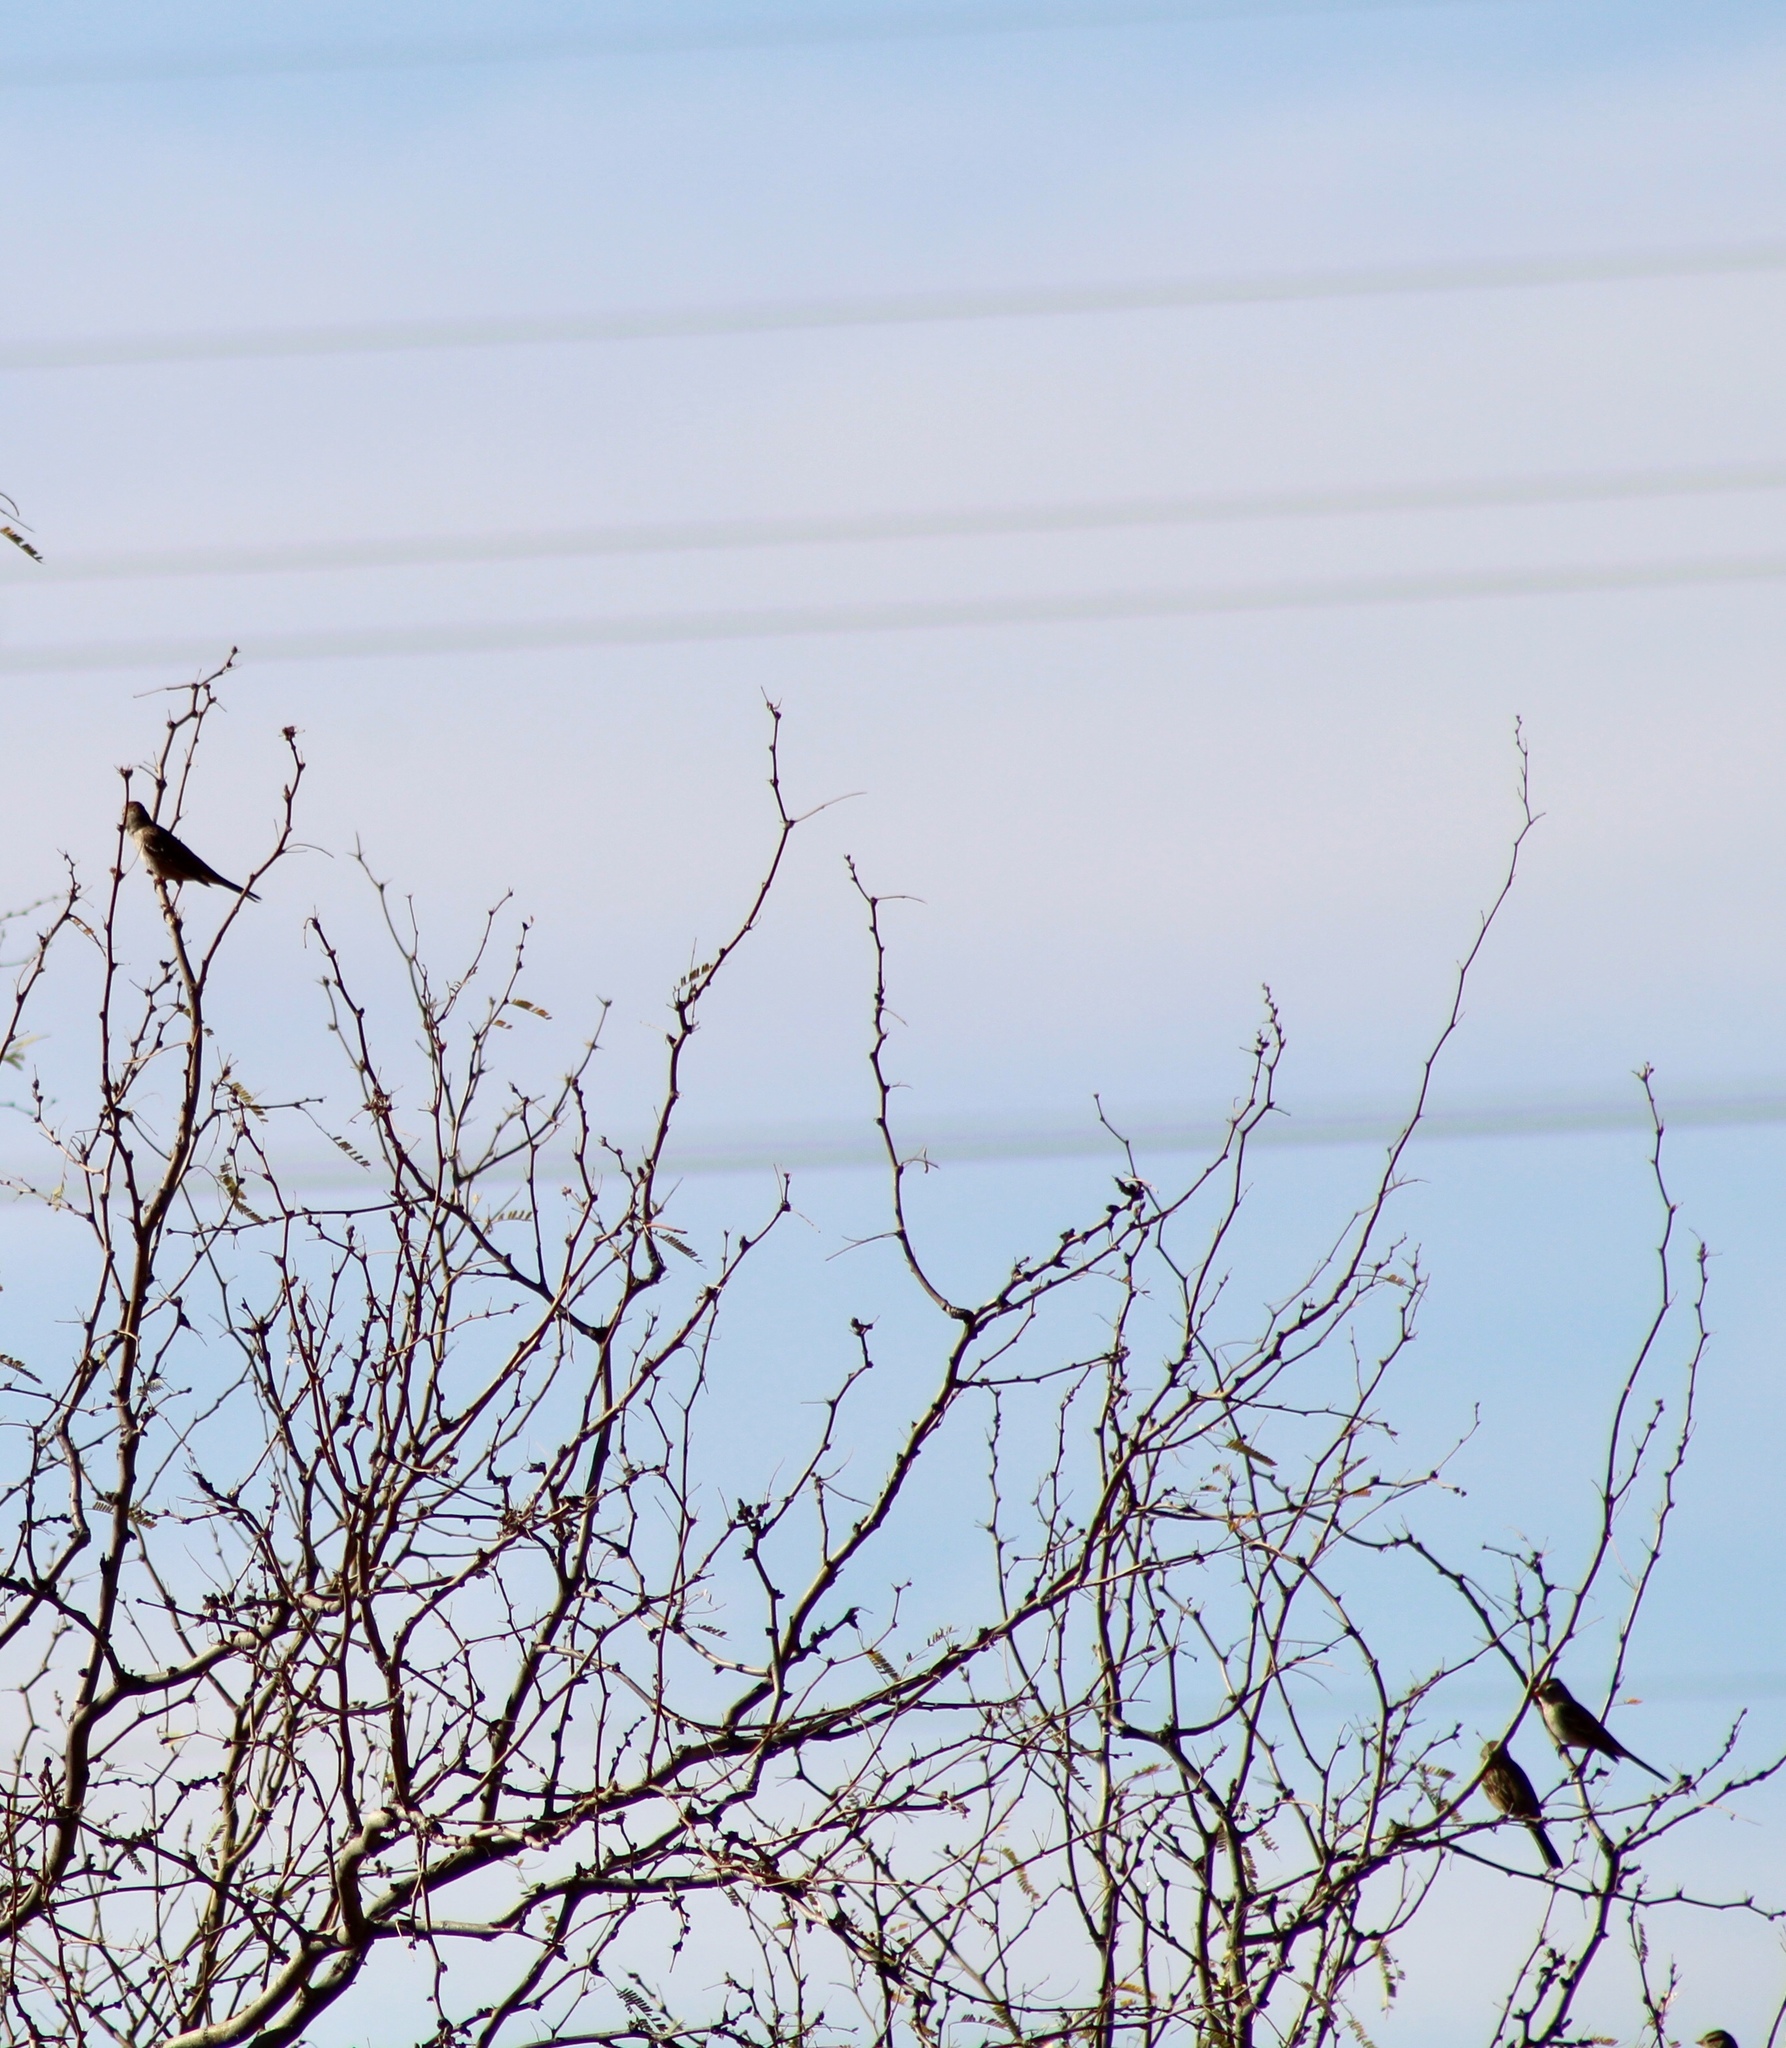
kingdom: Animalia
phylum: Chordata
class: Aves
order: Passeriformes
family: Passerellidae
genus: Zonotrichia
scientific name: Zonotrichia leucophrys
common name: White-crowned sparrow
